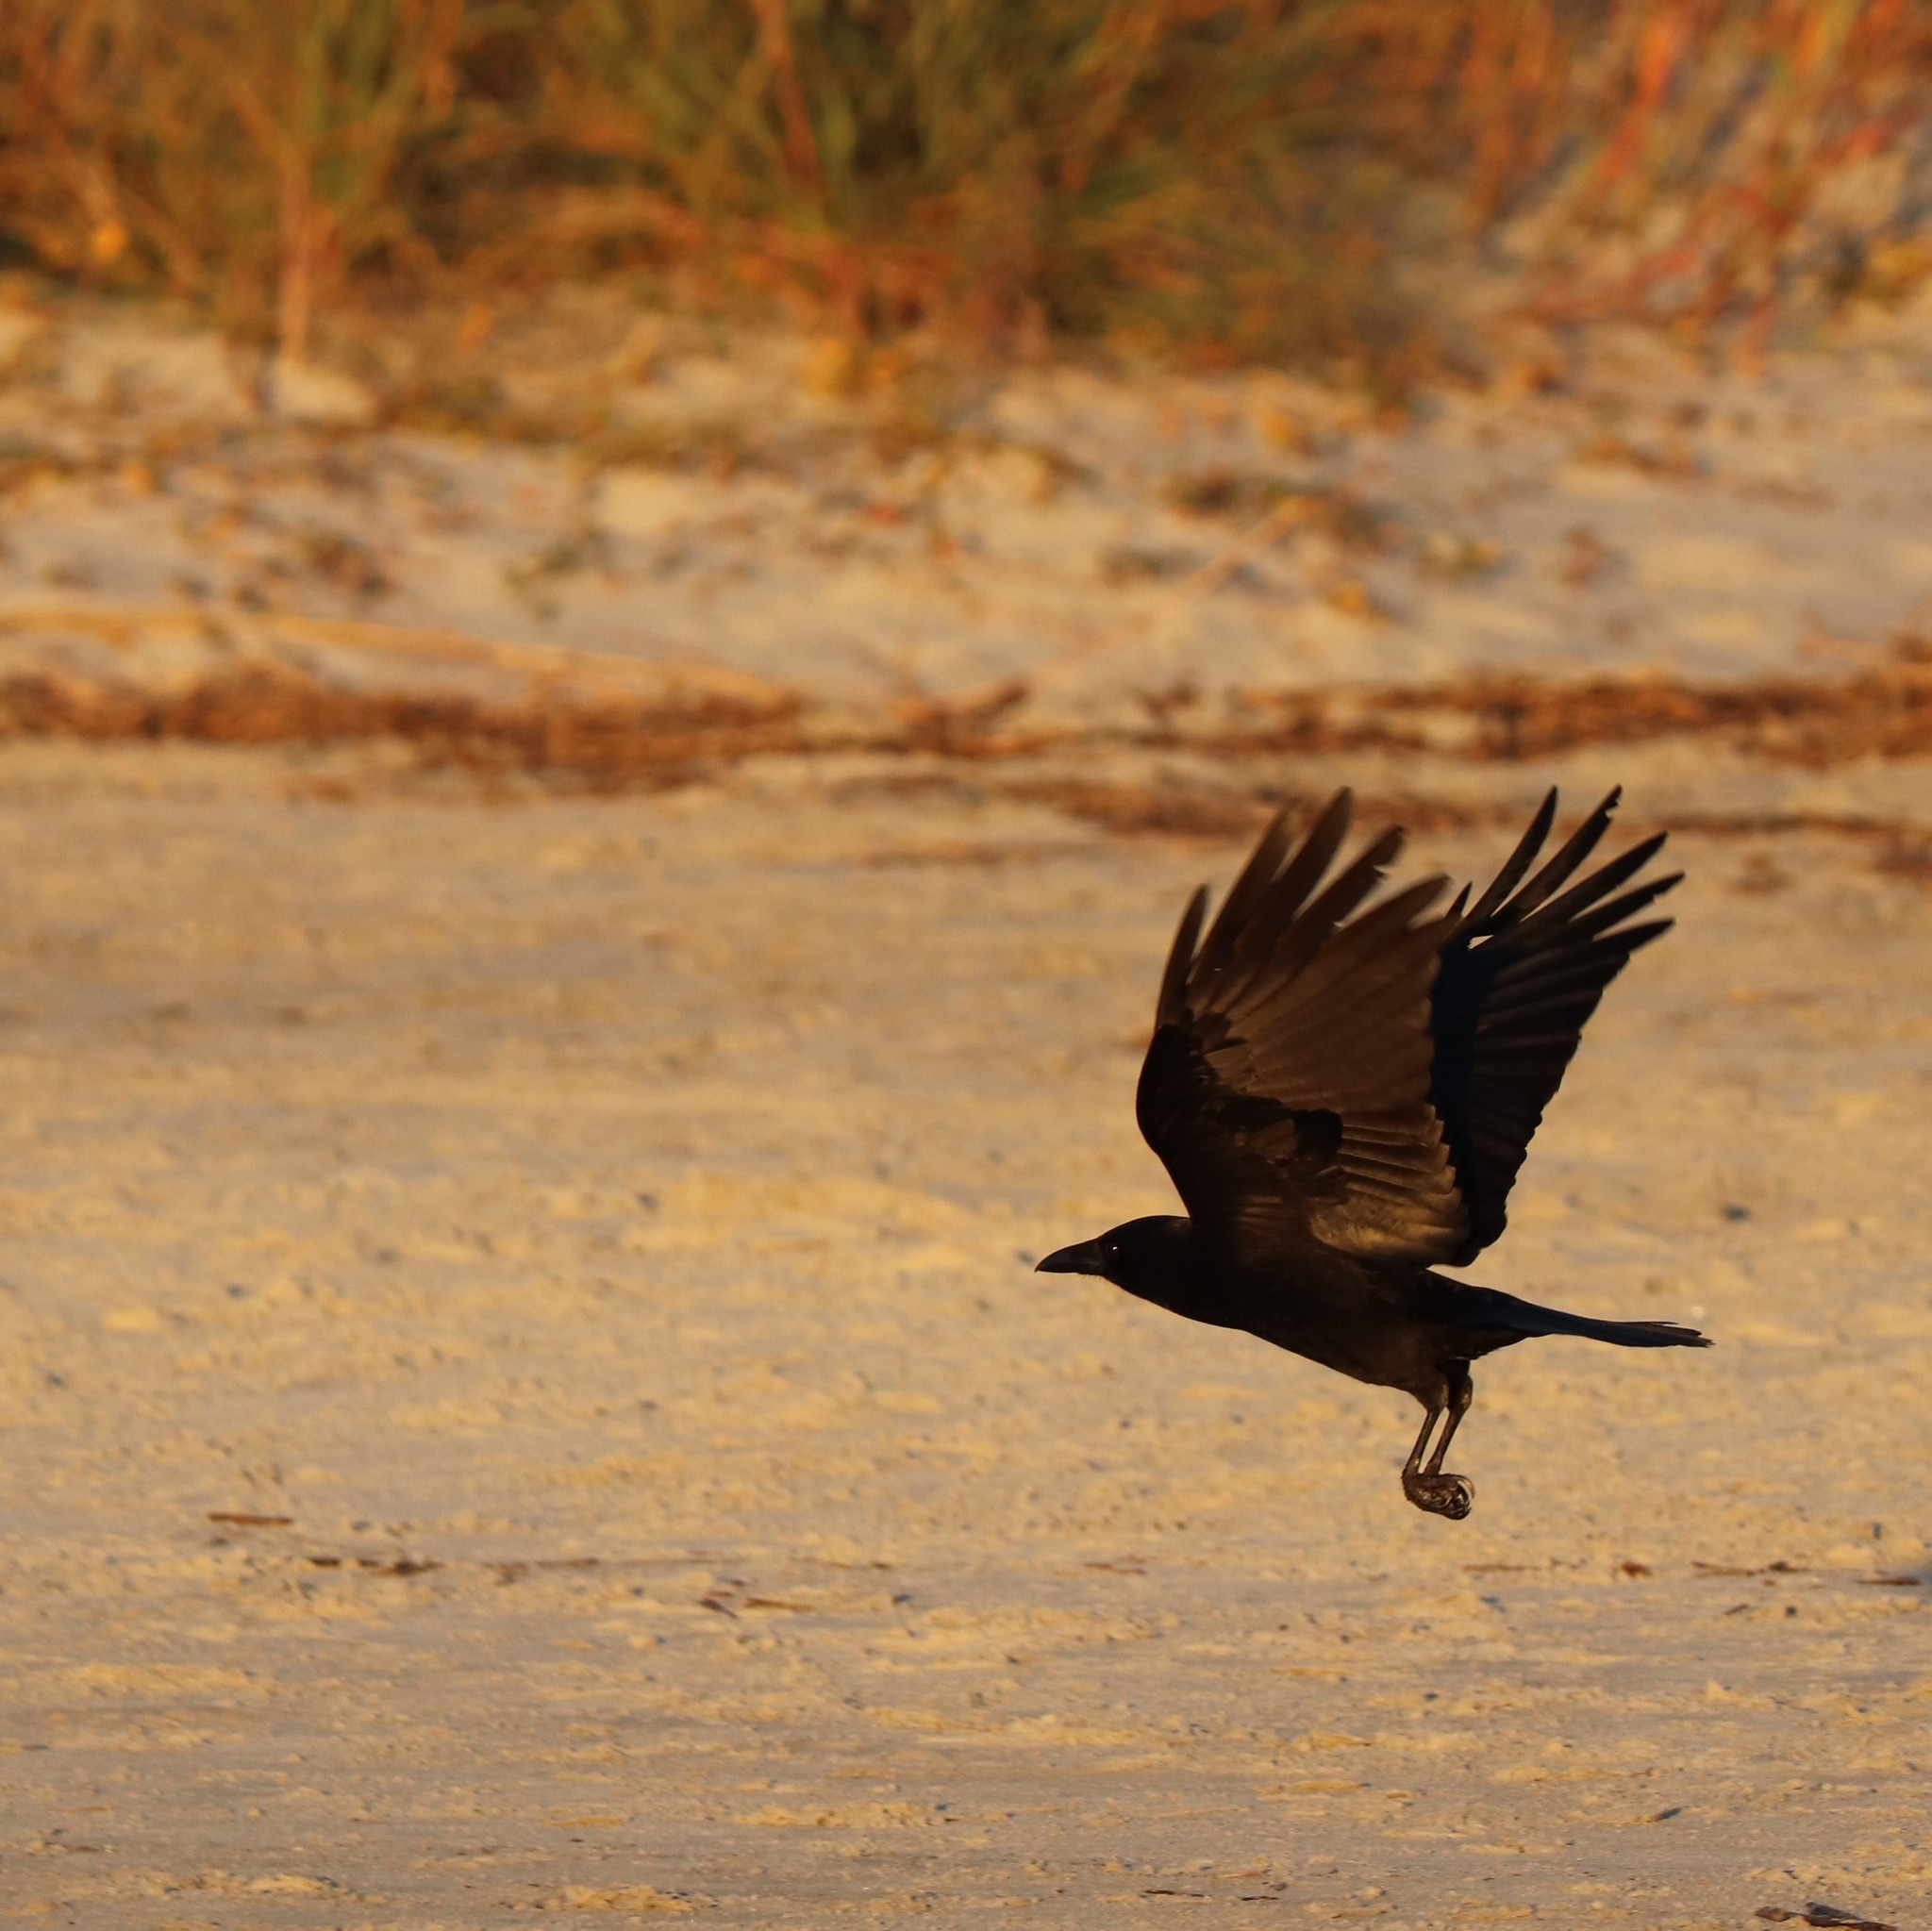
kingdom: Animalia
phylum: Chordata
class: Aves
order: Passeriformes
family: Corvidae
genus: Corvus
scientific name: Corvus brachyrhynchos
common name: American crow
